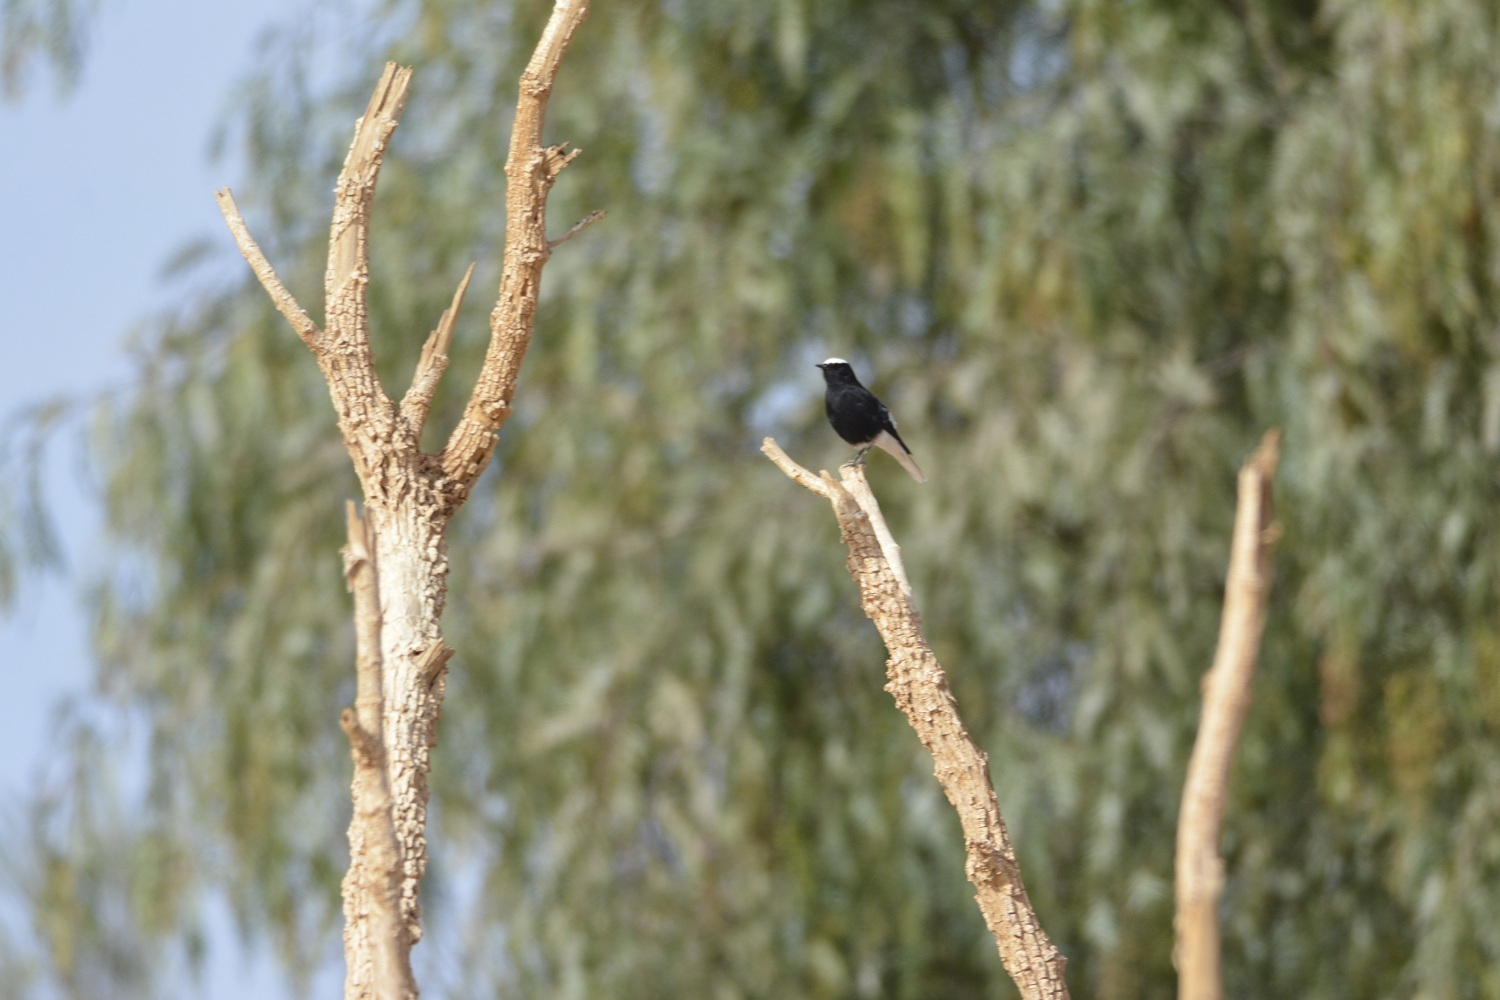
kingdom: Animalia
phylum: Chordata
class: Aves
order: Passeriformes
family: Muscicapidae
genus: Oenanthe
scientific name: Oenanthe leucopyga
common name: White-crowned wheatear
